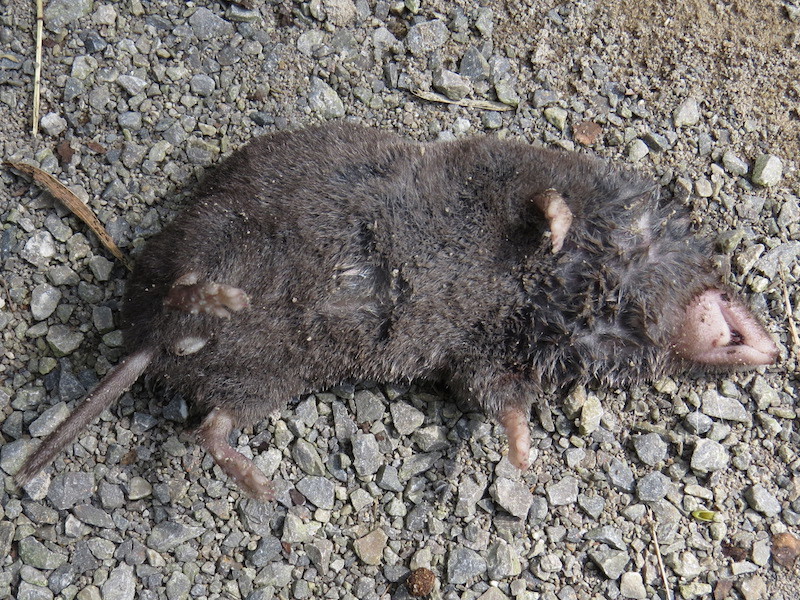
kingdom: Animalia
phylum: Chordata
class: Mammalia
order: Soricomorpha
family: Soricidae
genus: Blarina
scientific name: Blarina brevicauda
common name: Northern short-tailed shrew
